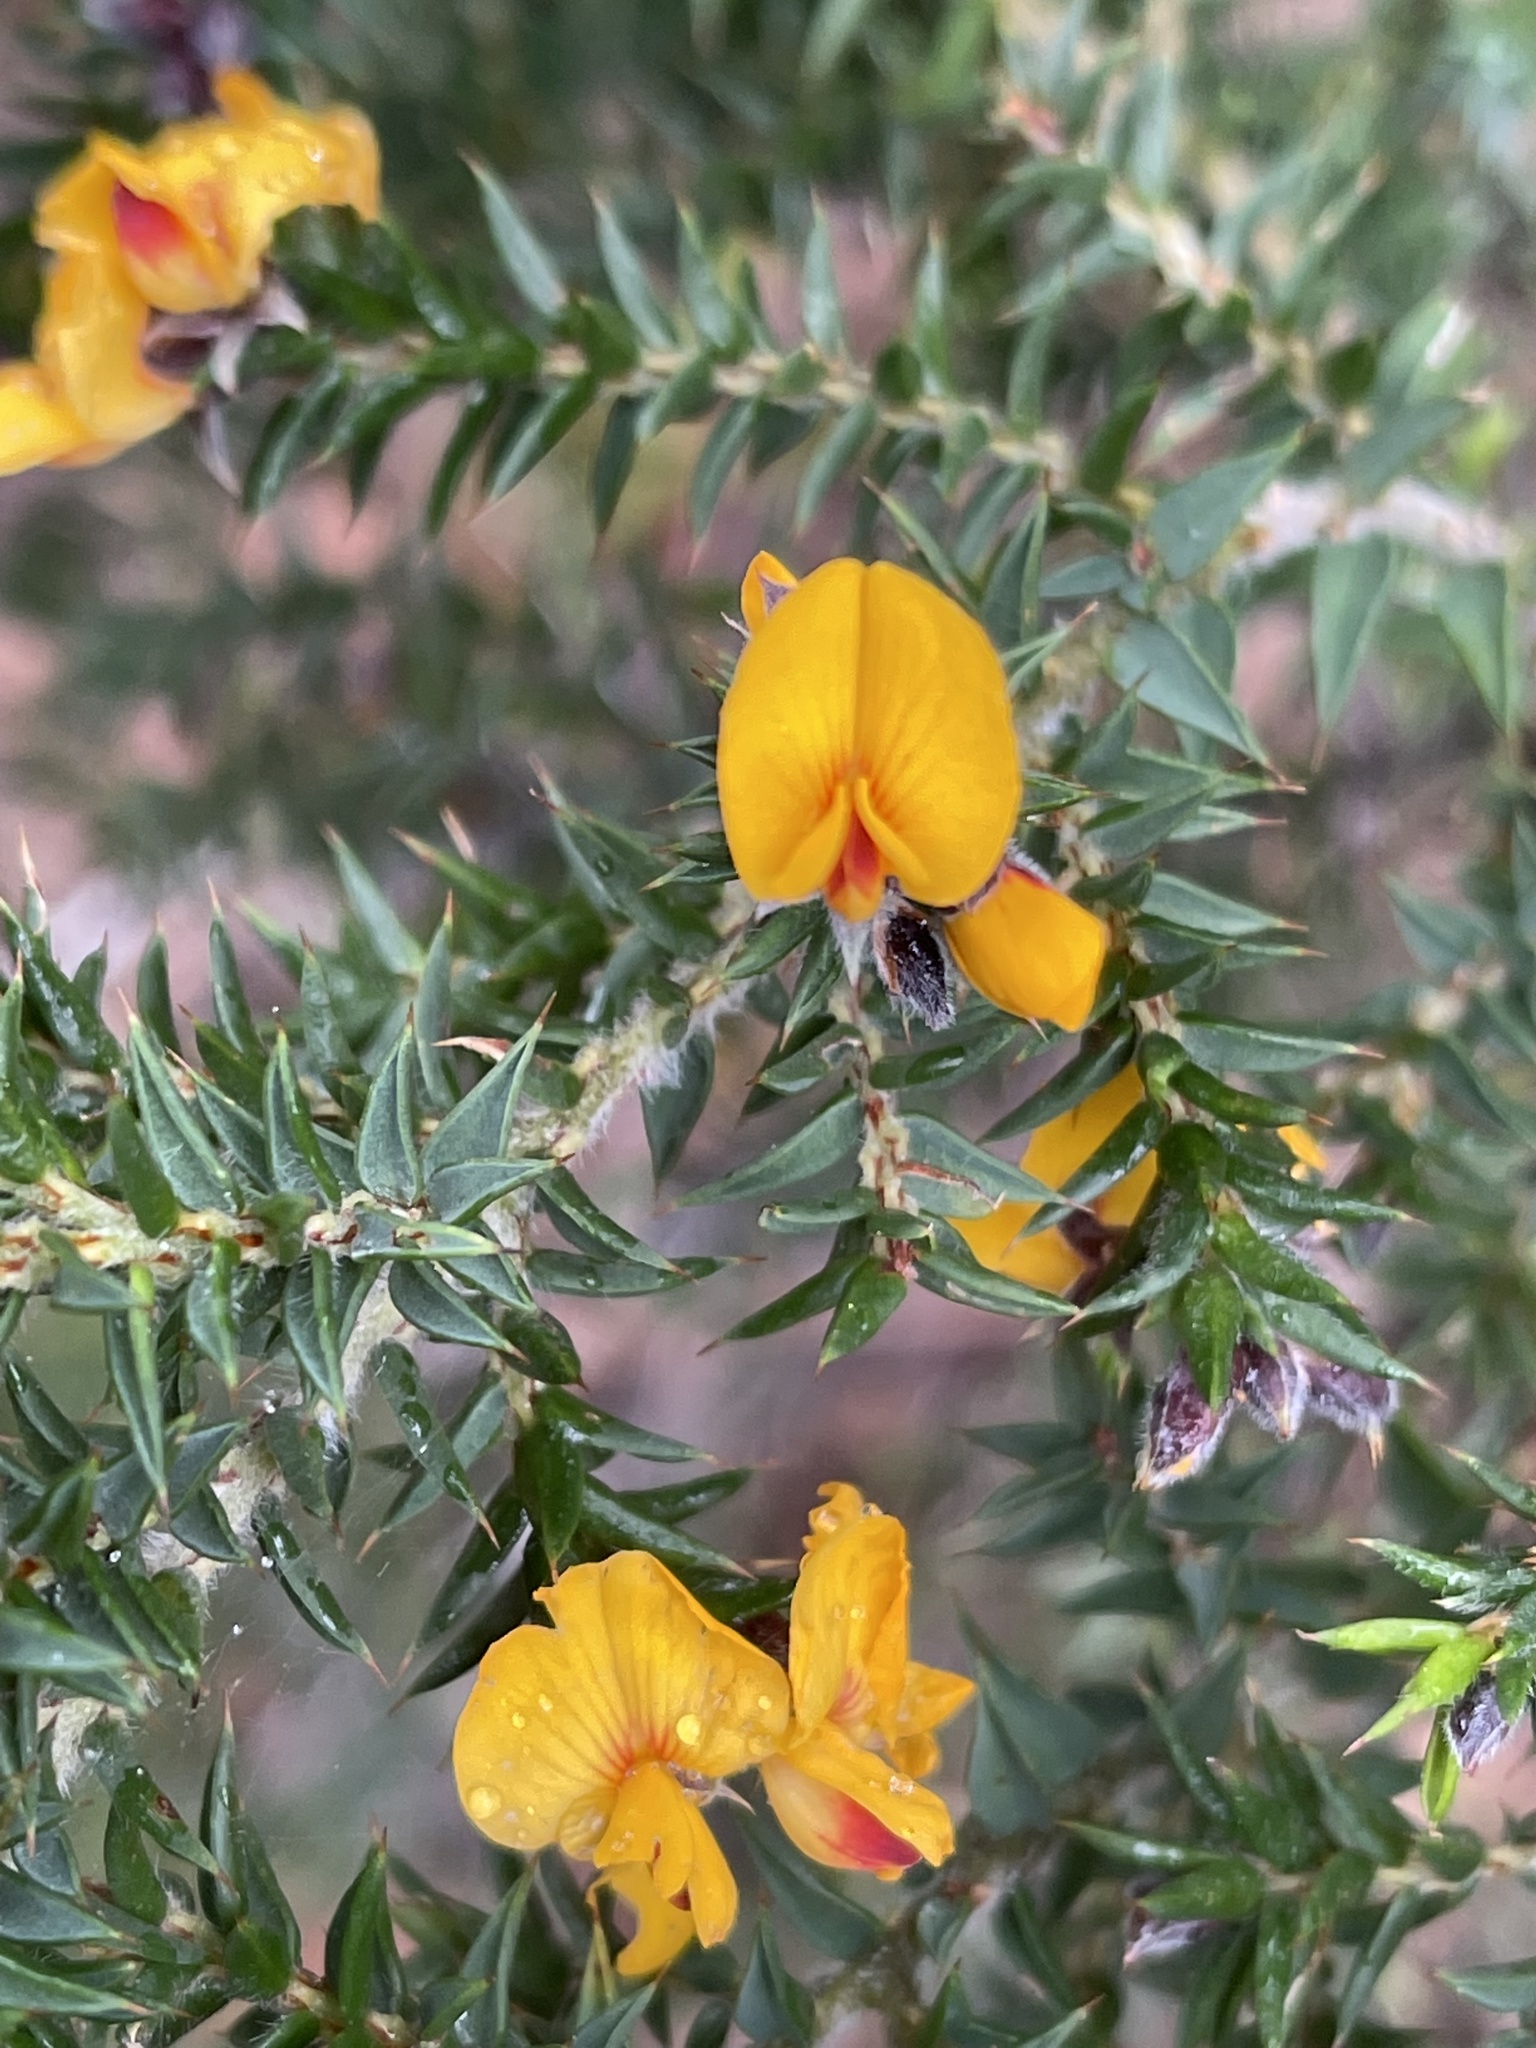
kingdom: Plantae
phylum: Tracheophyta
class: Magnoliopsida
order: Fabales
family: Fabaceae
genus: Pultenaea
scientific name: Pultenaea juniperina
